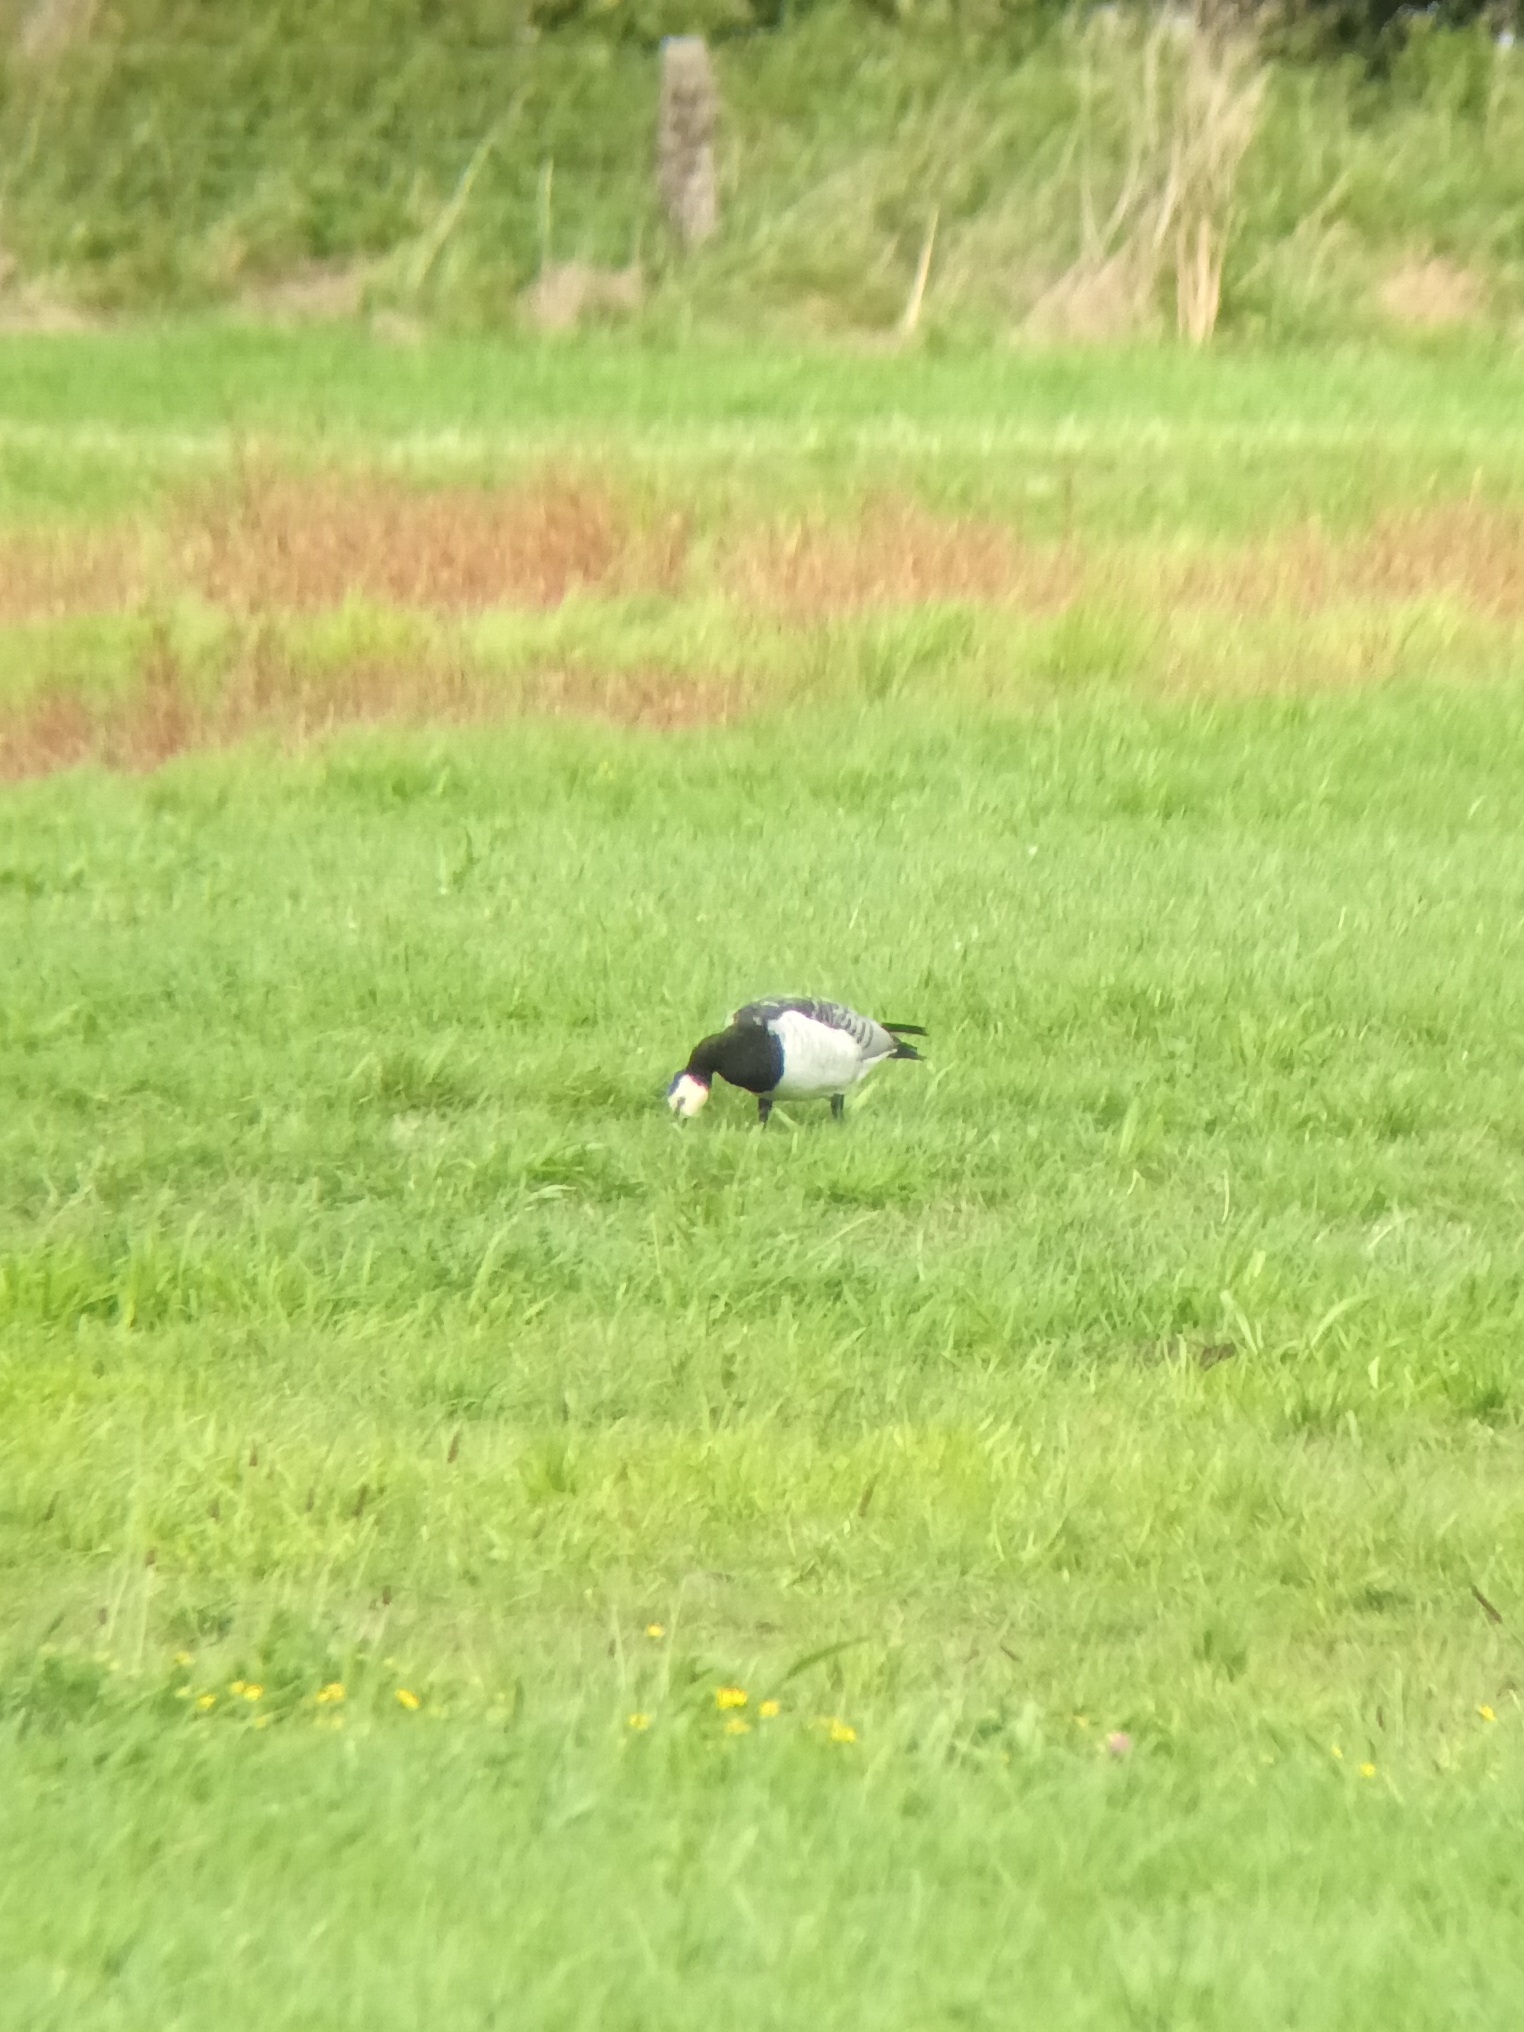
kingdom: Animalia
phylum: Chordata
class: Aves
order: Anseriformes
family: Anatidae
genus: Branta
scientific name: Branta leucopsis
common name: Barnacle goose
